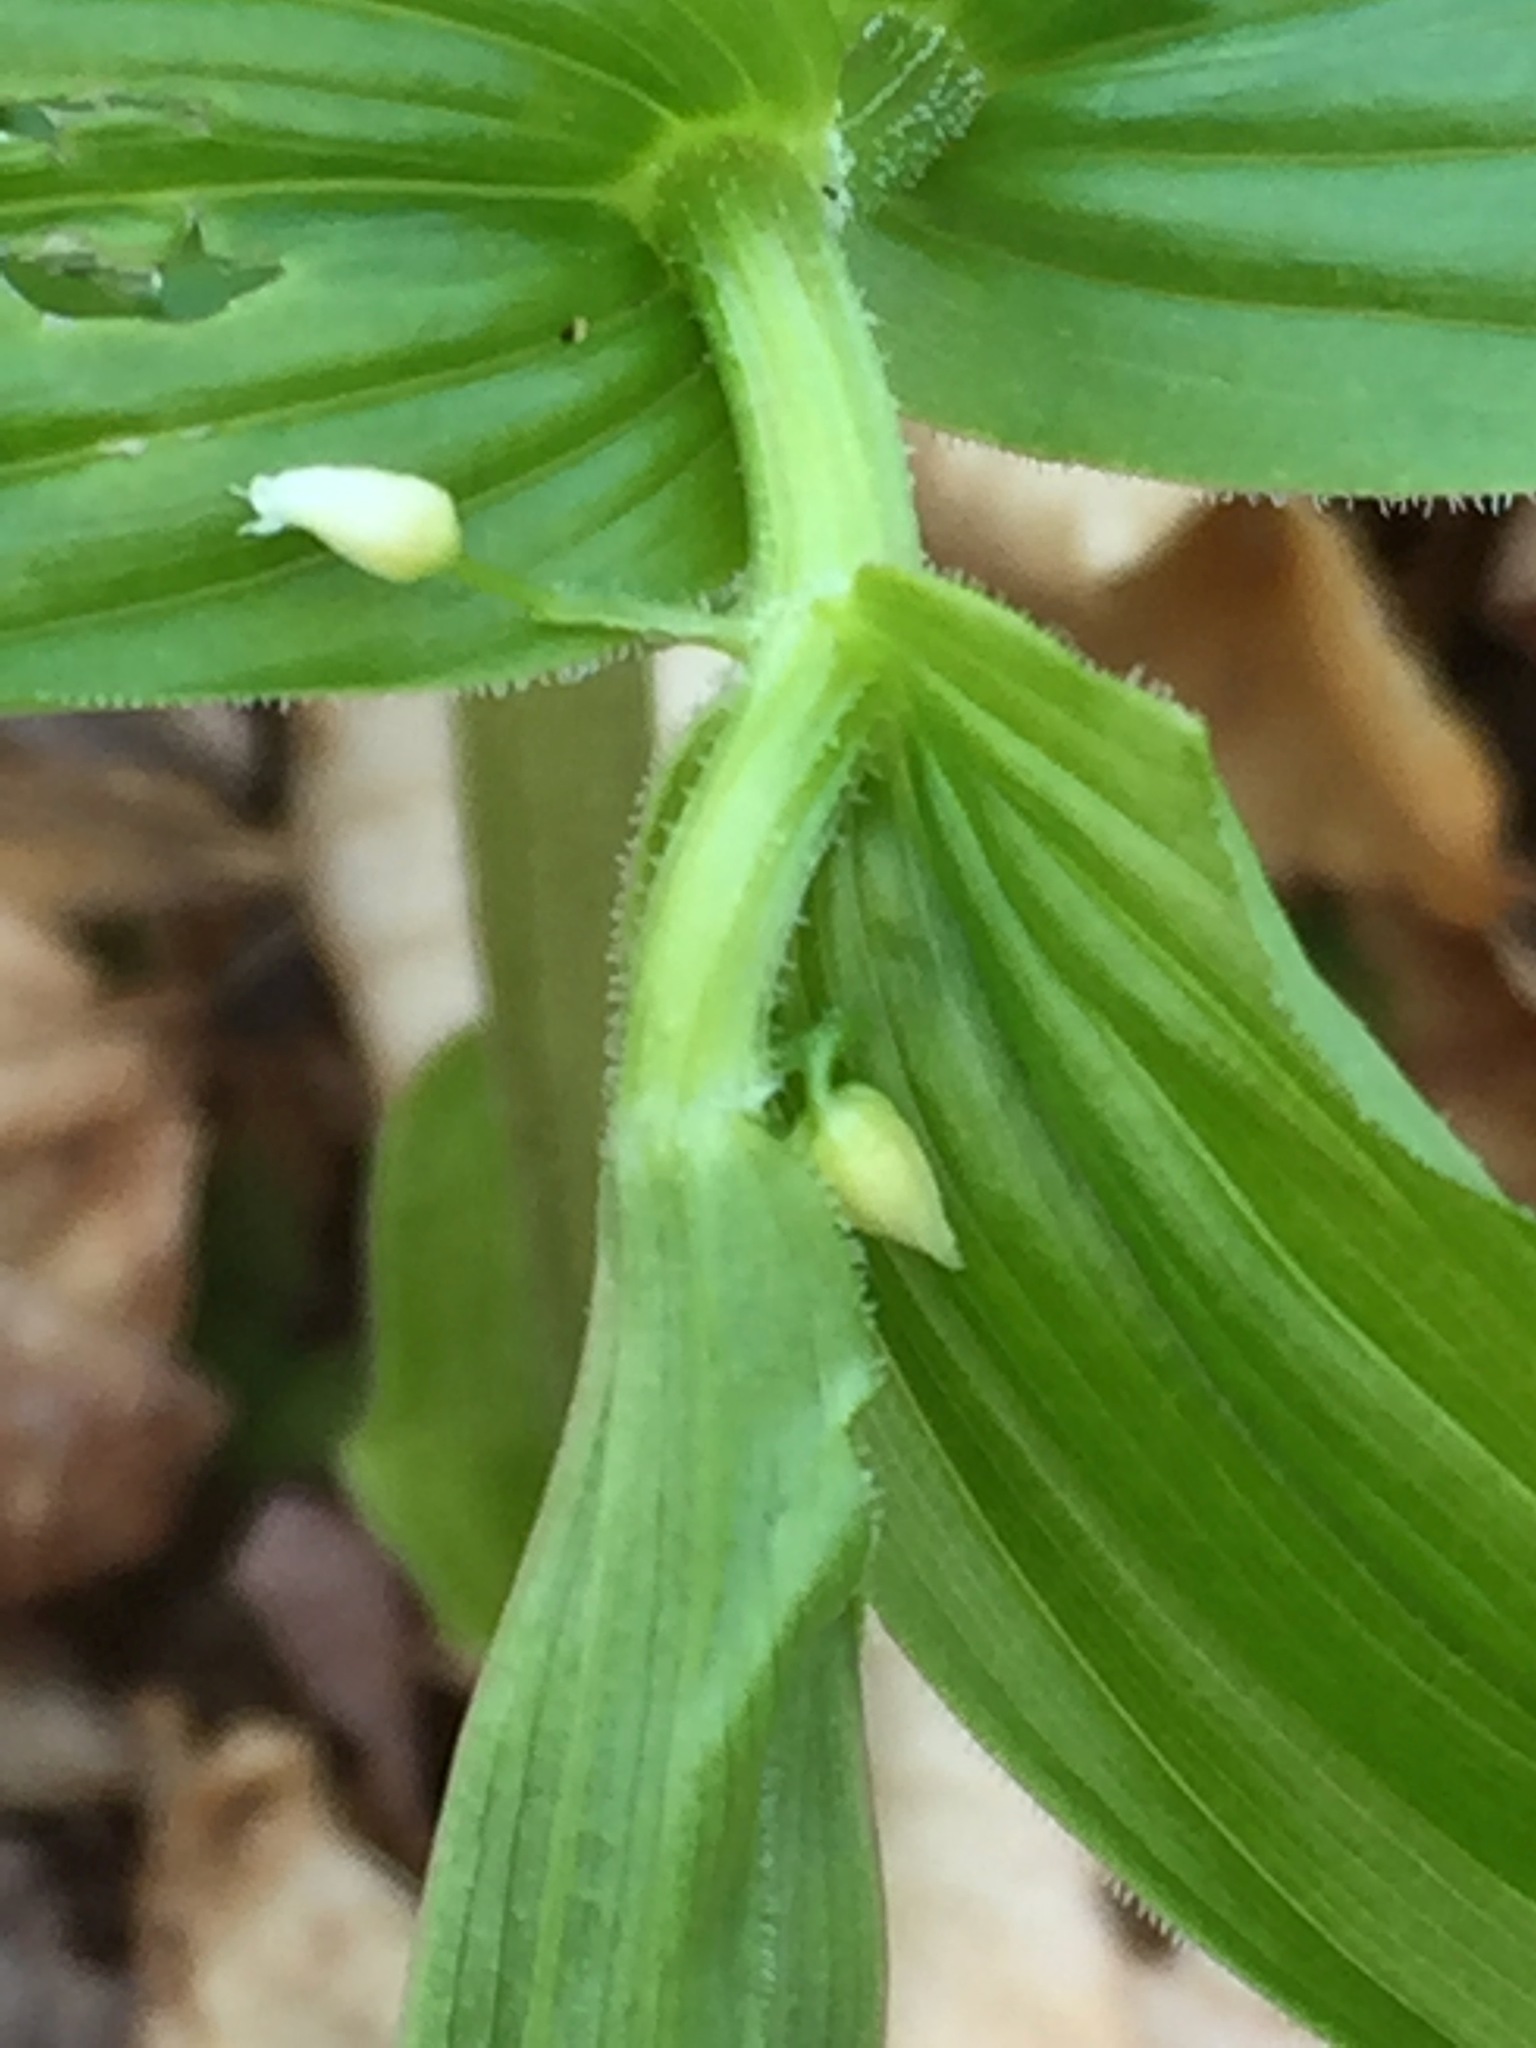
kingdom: Plantae
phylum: Tracheophyta
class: Liliopsida
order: Liliales
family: Liliaceae
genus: Streptopus
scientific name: Streptopus lanceolatus
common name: Rose mandarin
